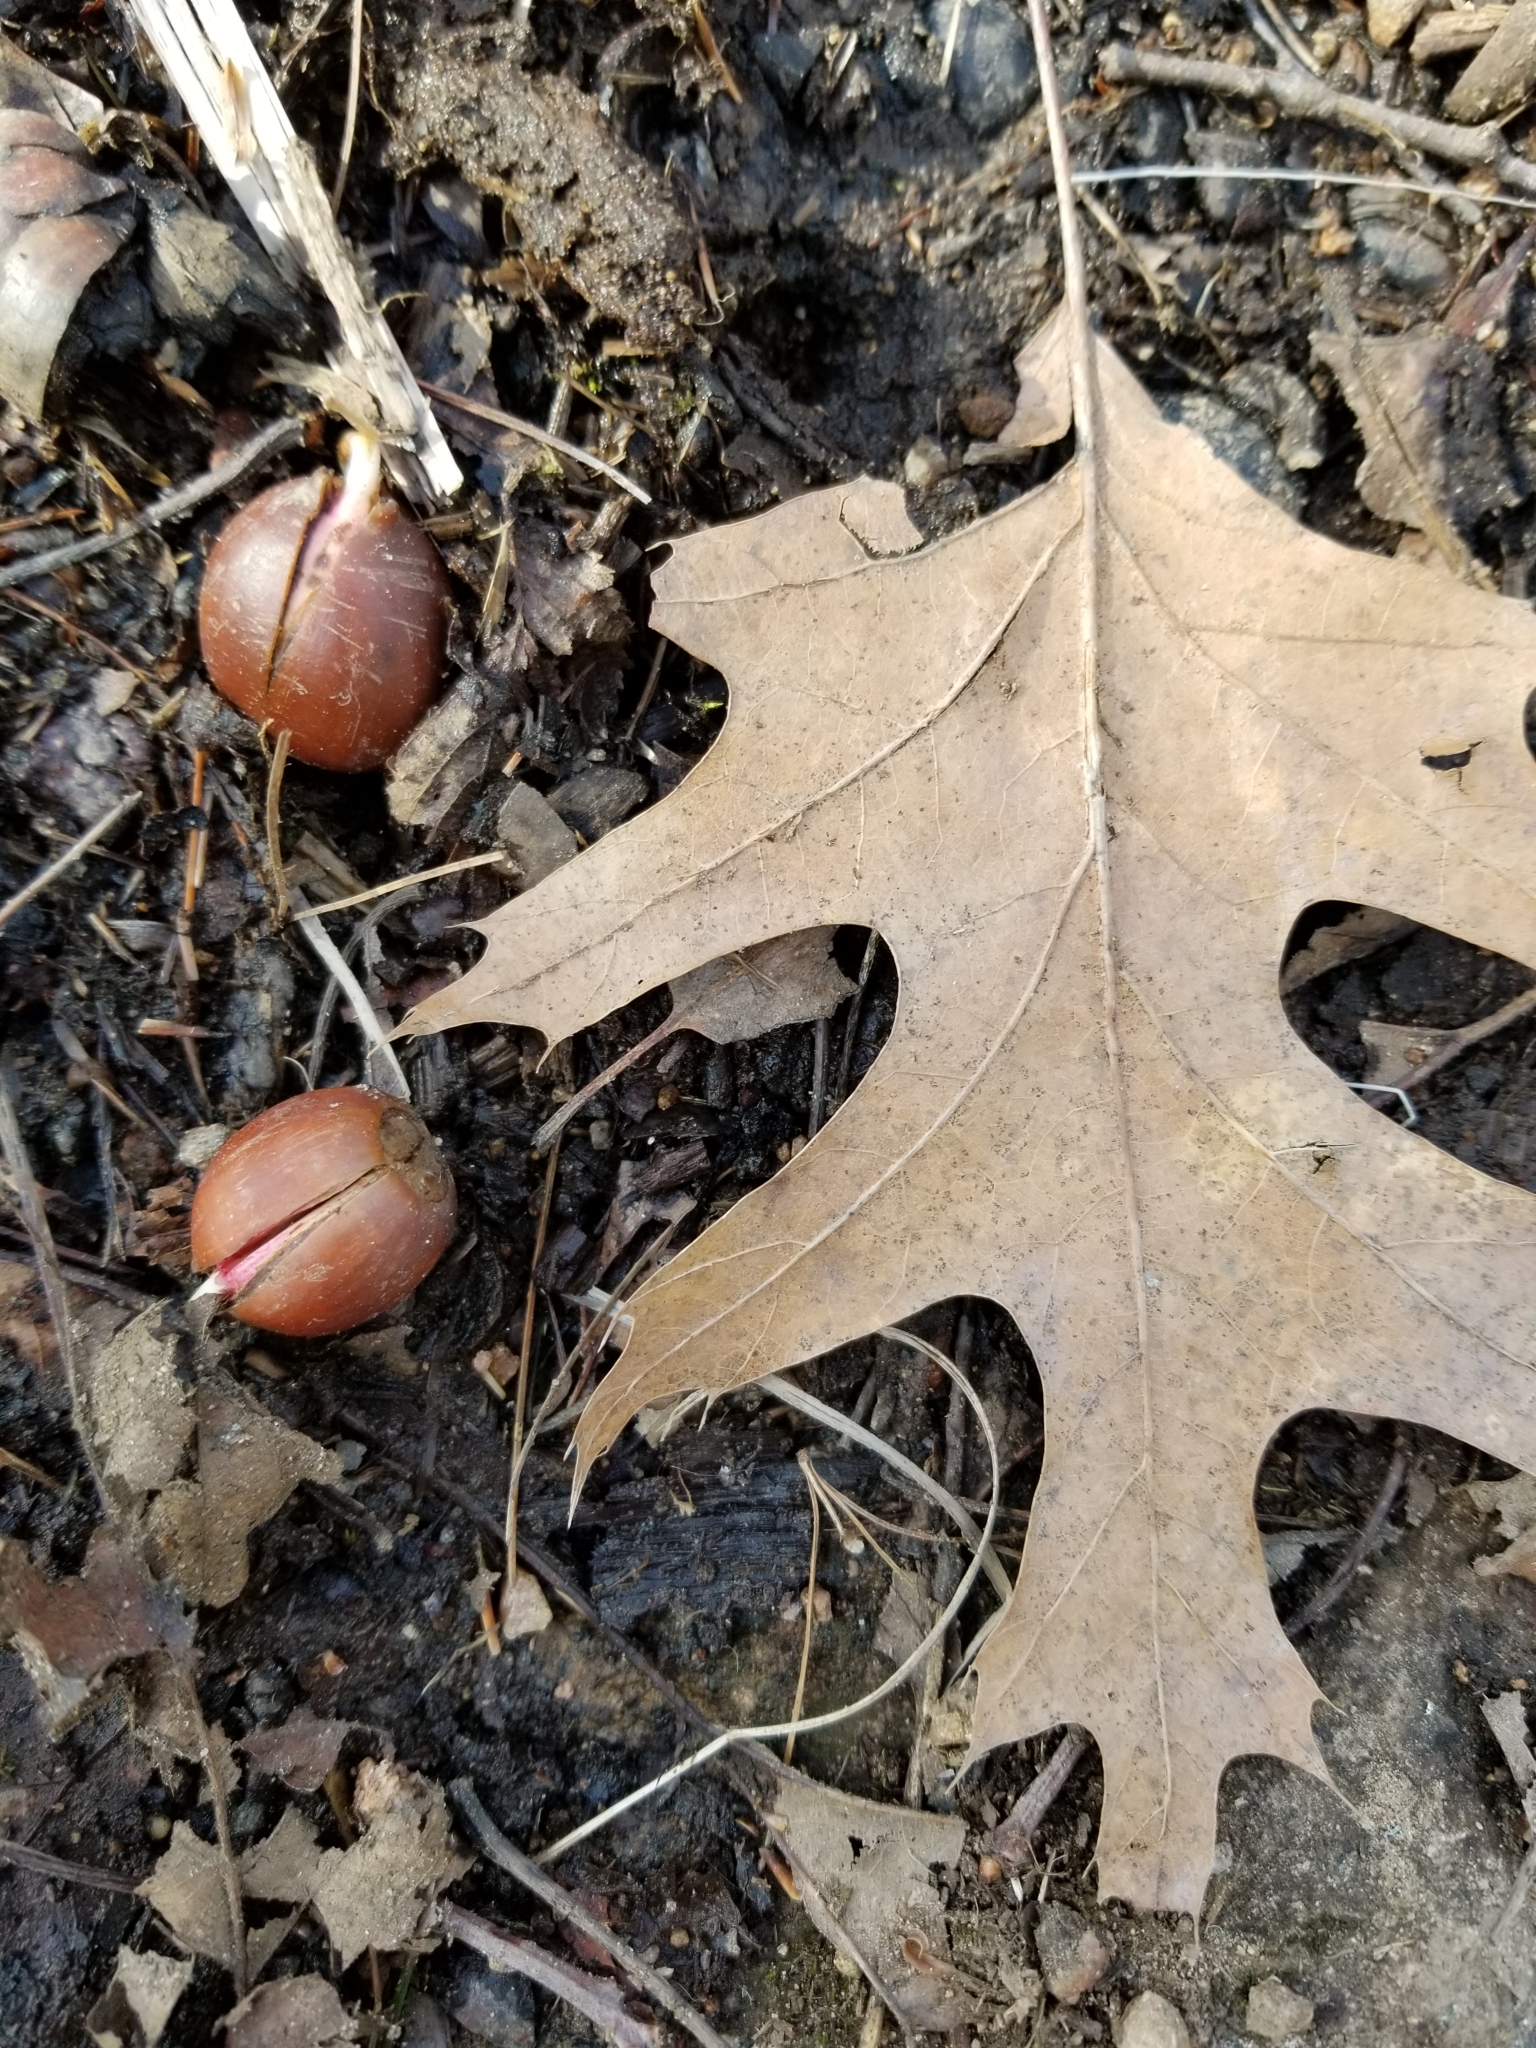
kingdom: Plantae
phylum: Tracheophyta
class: Magnoliopsida
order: Fagales
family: Fagaceae
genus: Quercus
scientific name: Quercus rubra
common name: Red oak
